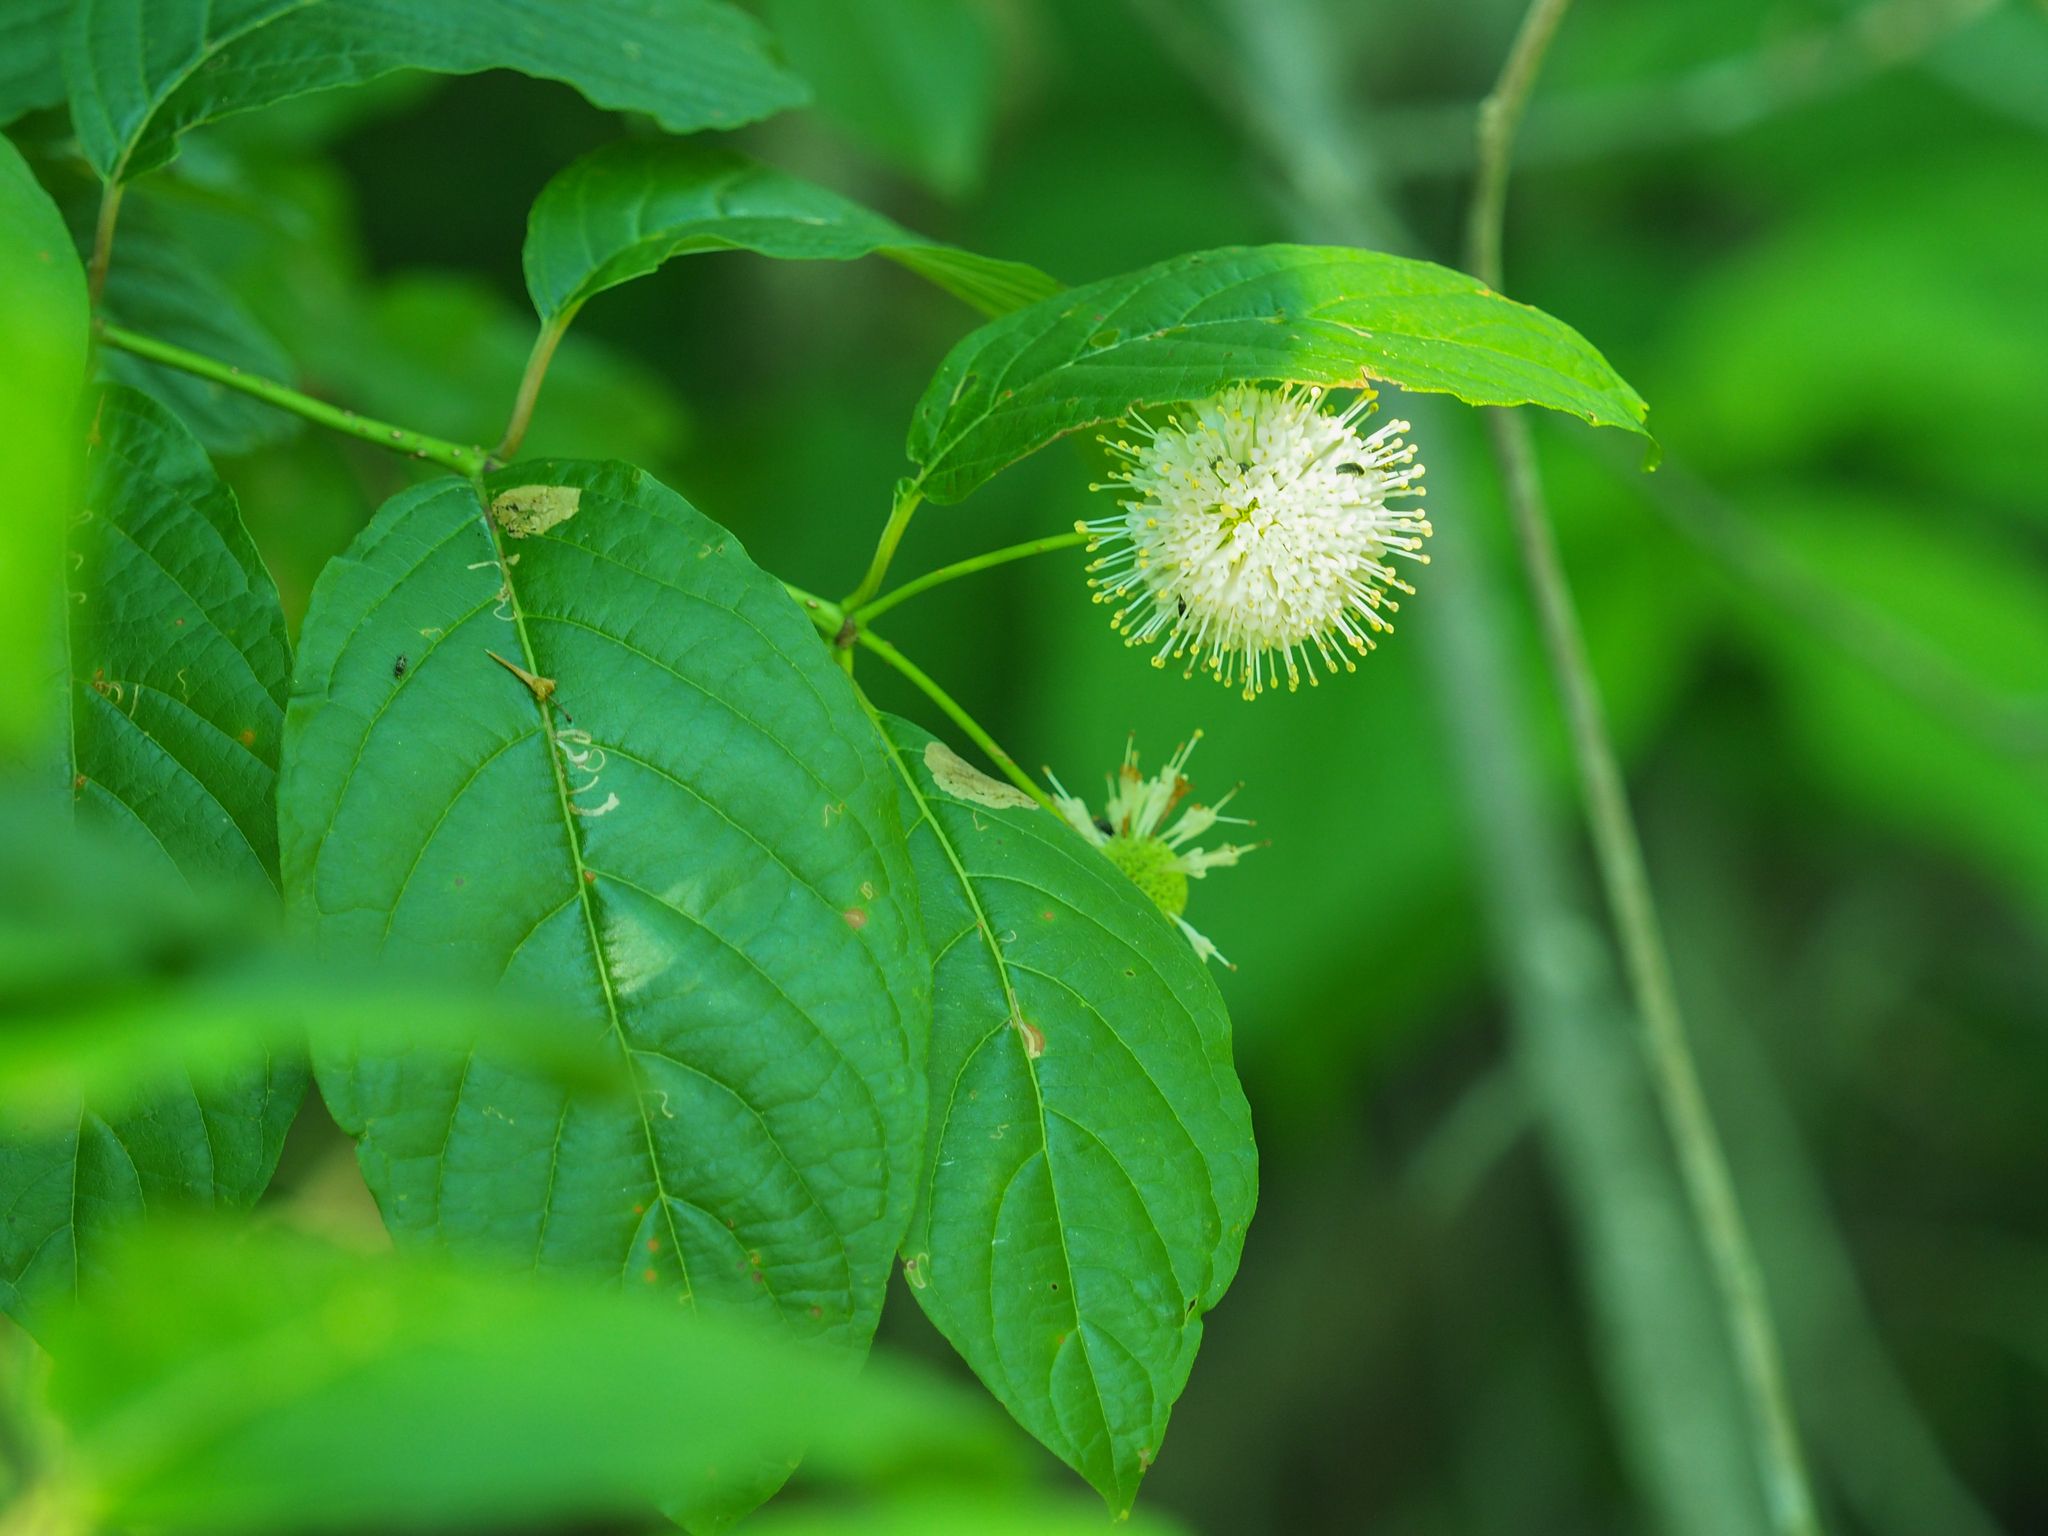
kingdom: Plantae
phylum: Tracheophyta
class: Magnoliopsida
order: Gentianales
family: Rubiaceae
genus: Cephalanthus
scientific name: Cephalanthus occidentalis
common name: Button-willow
